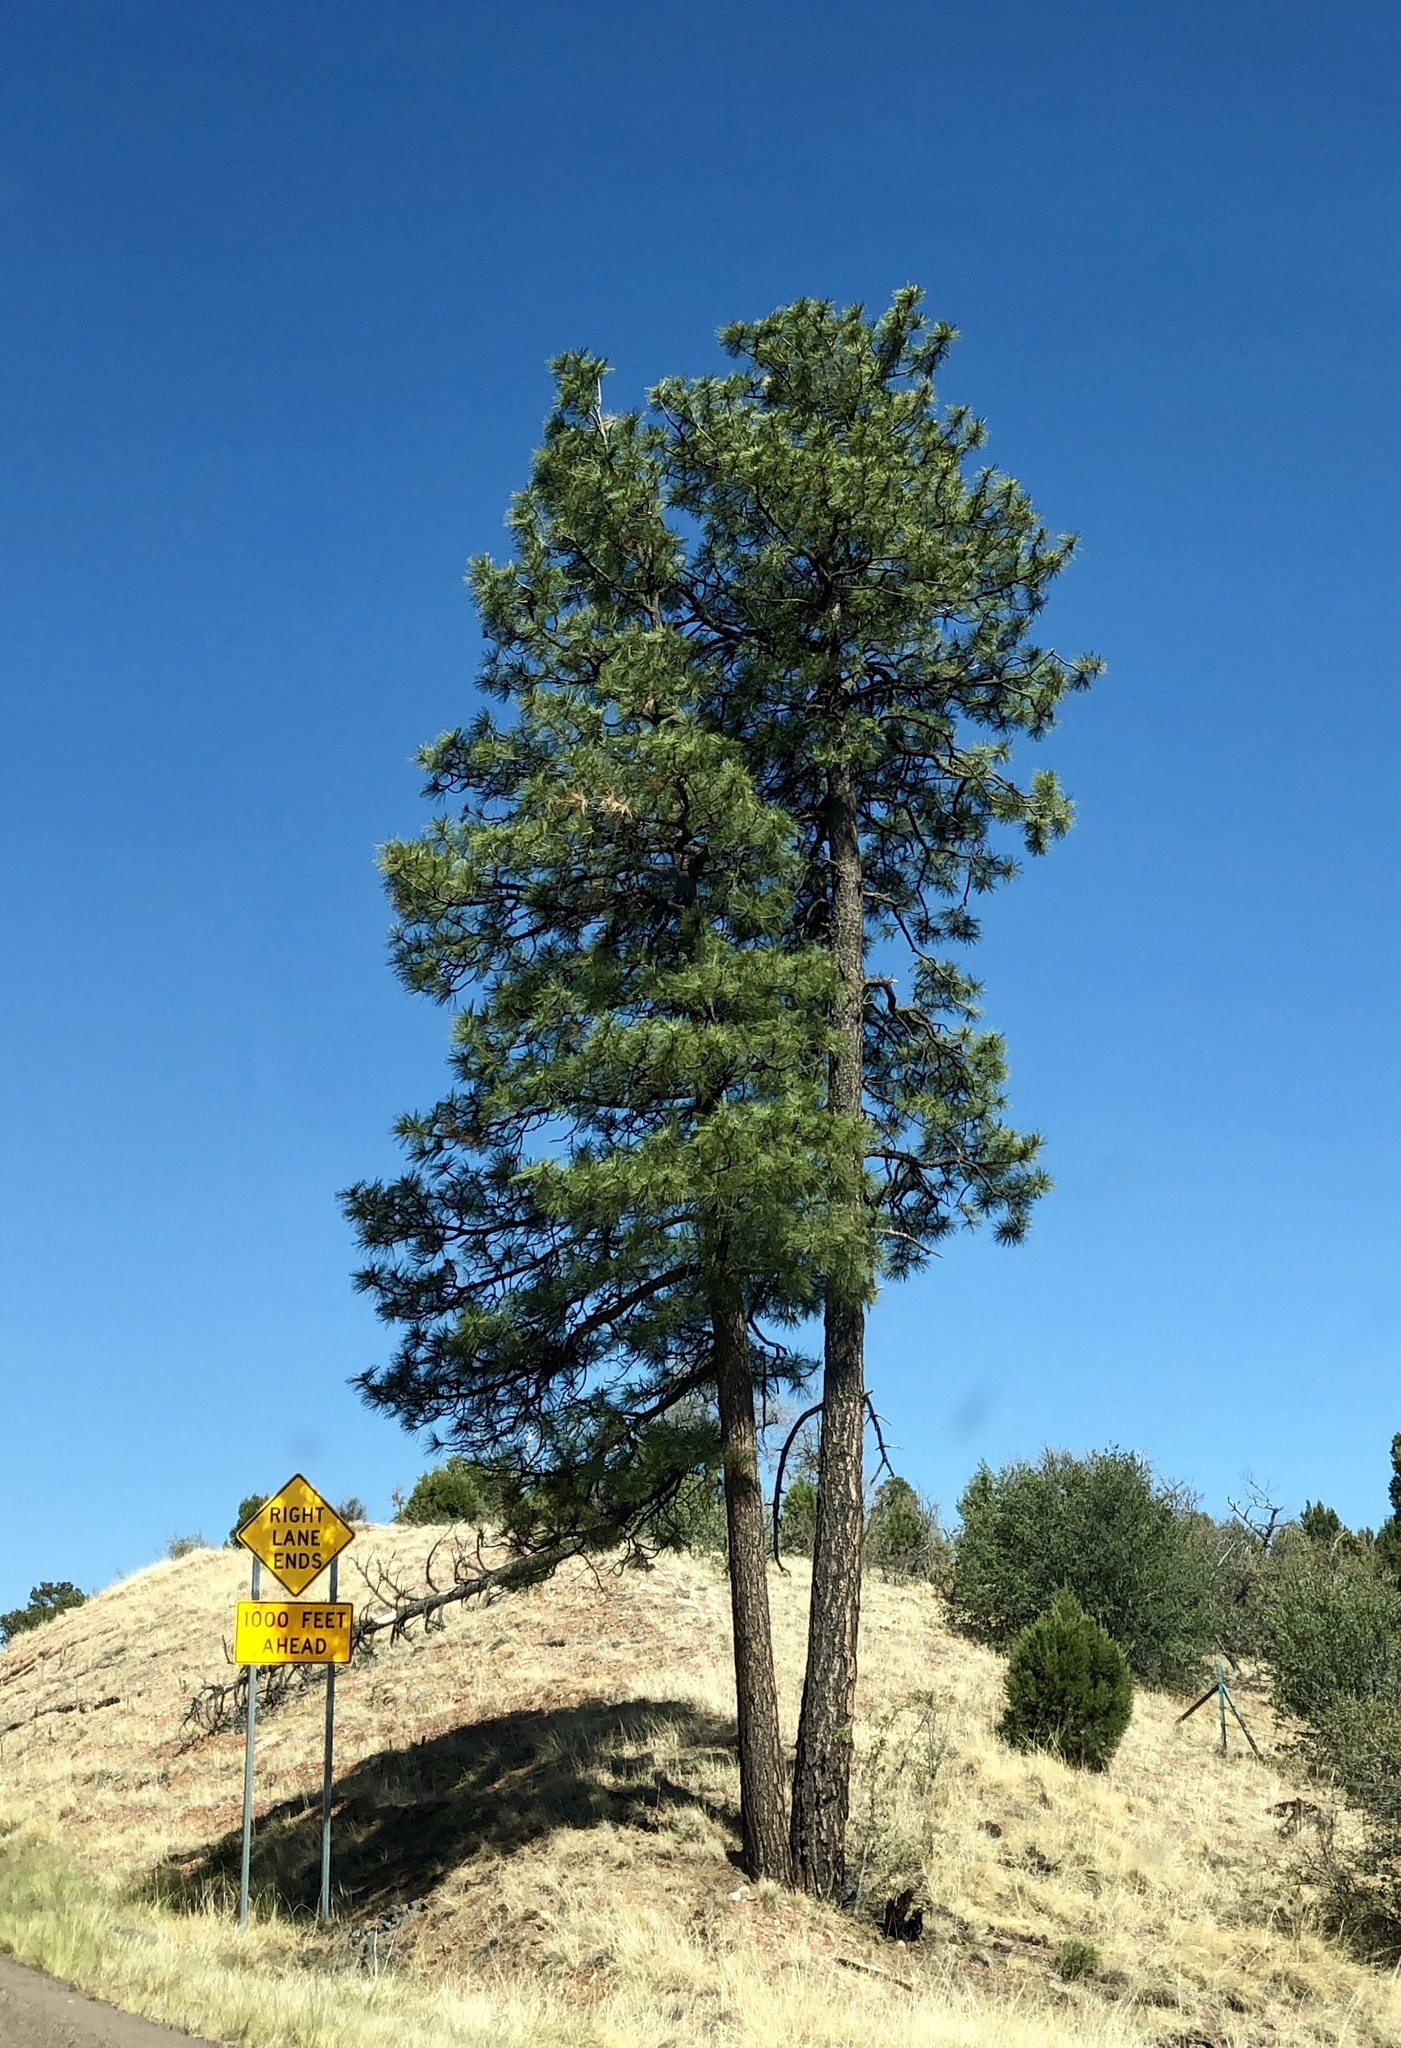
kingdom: Plantae
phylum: Tracheophyta
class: Pinopsida
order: Pinales
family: Pinaceae
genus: Pinus
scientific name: Pinus ponderosa
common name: Western yellow-pine
